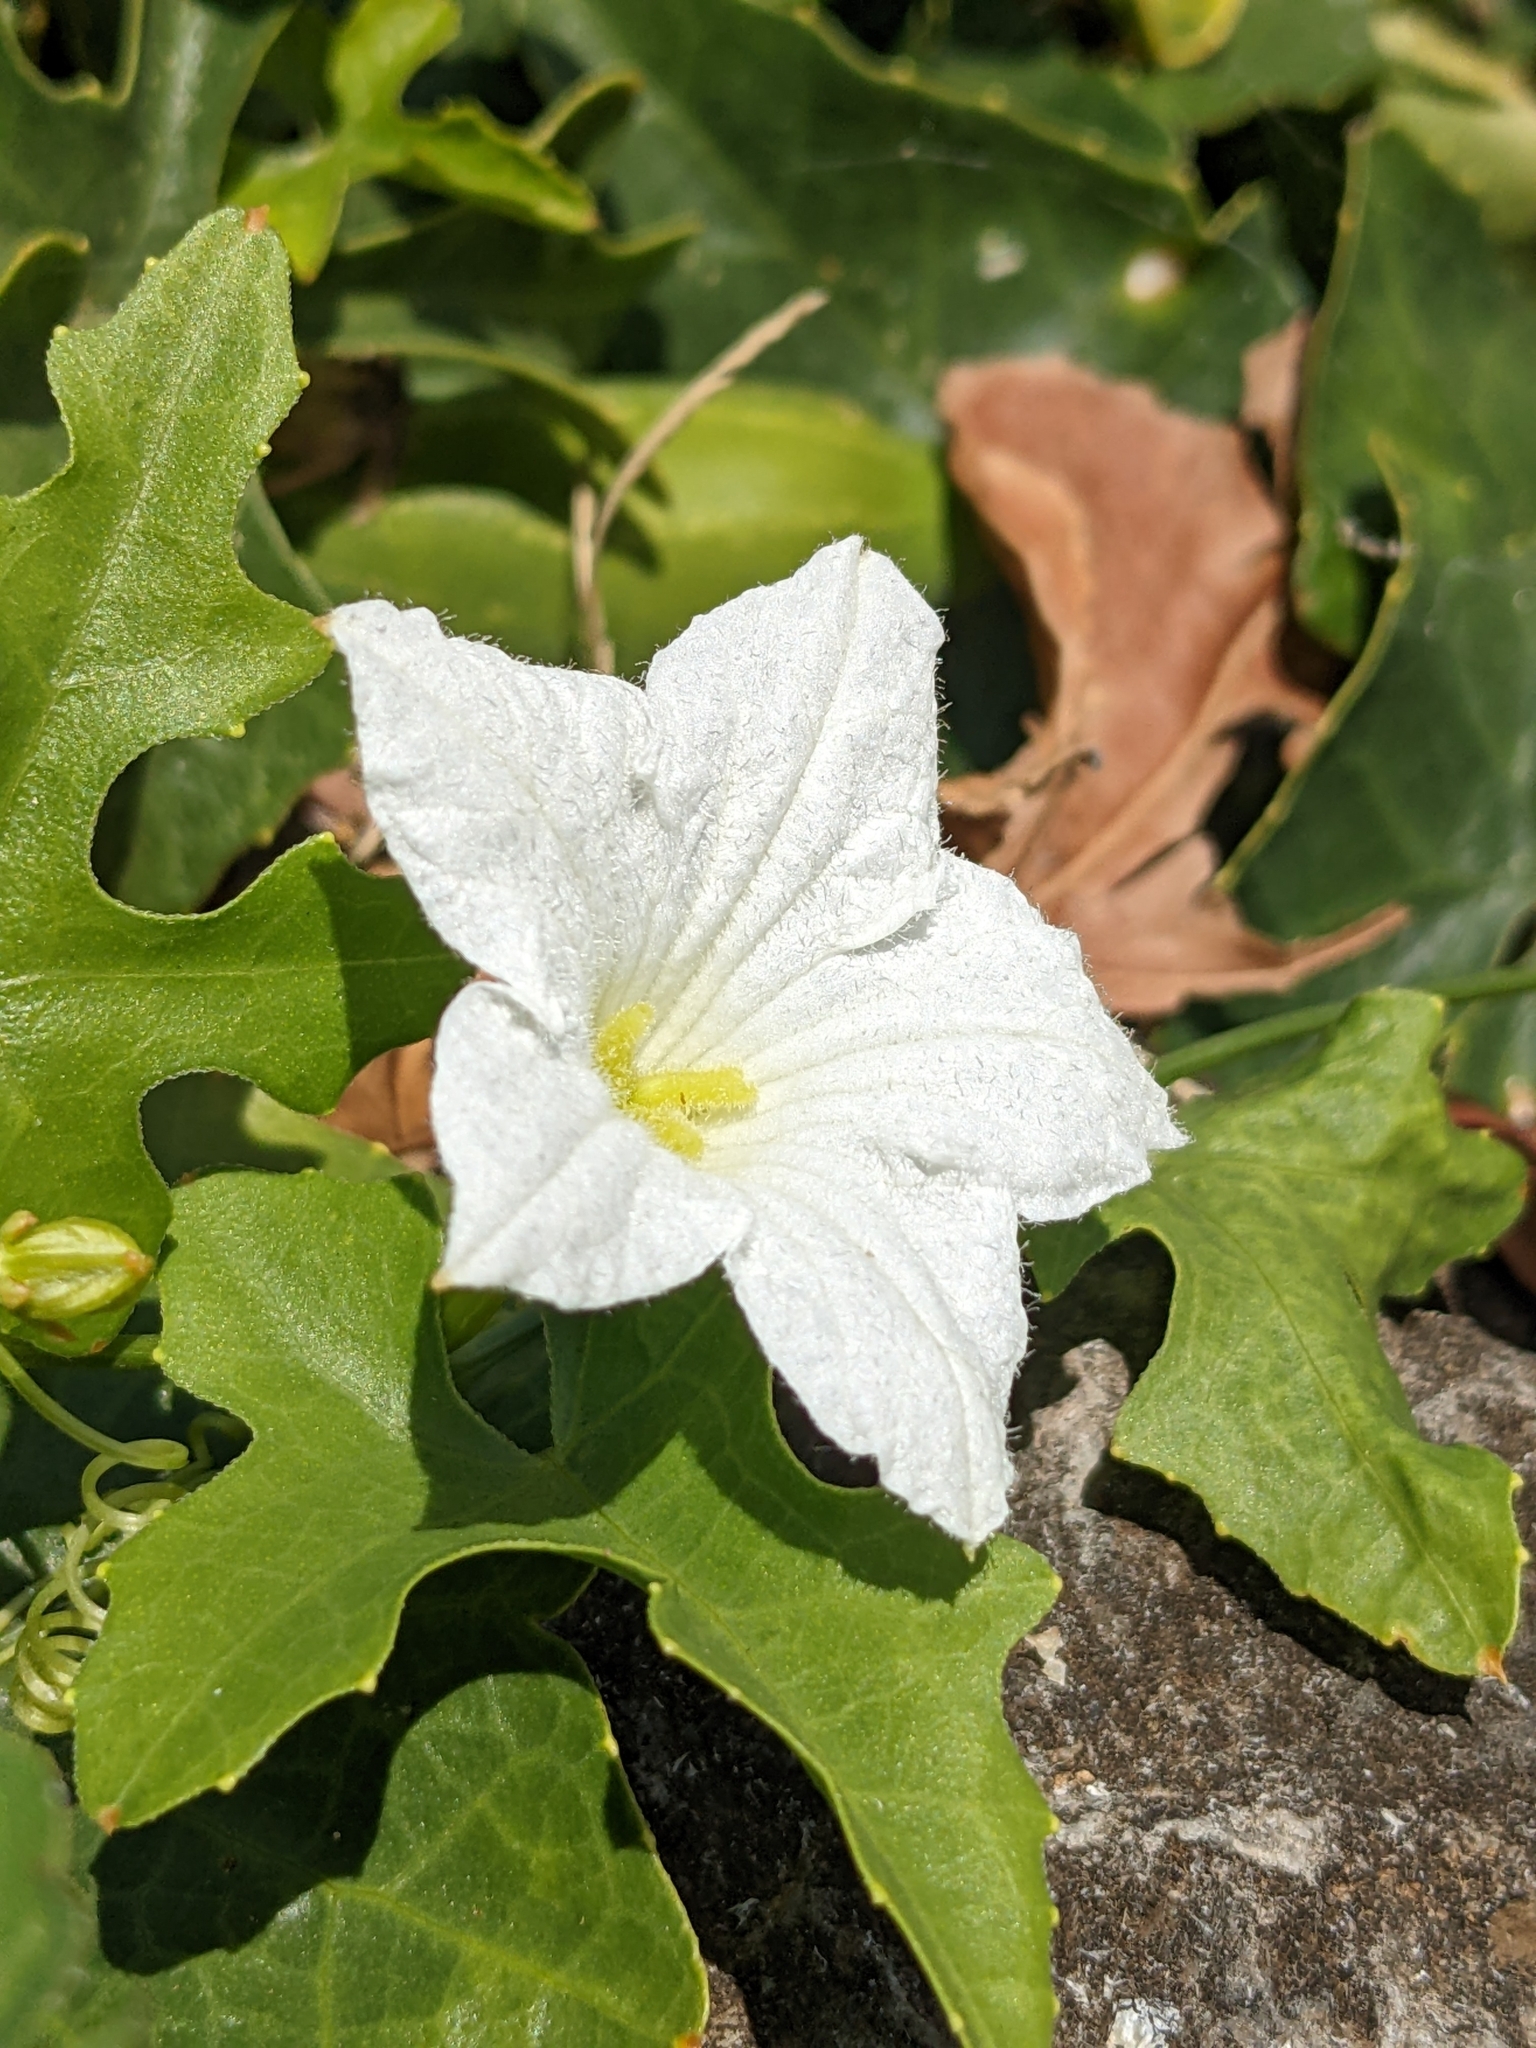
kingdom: Plantae
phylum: Tracheophyta
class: Magnoliopsida
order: Cucurbitales
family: Cucurbitaceae
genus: Coccinia
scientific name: Coccinia grandis
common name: Ivy gourd
